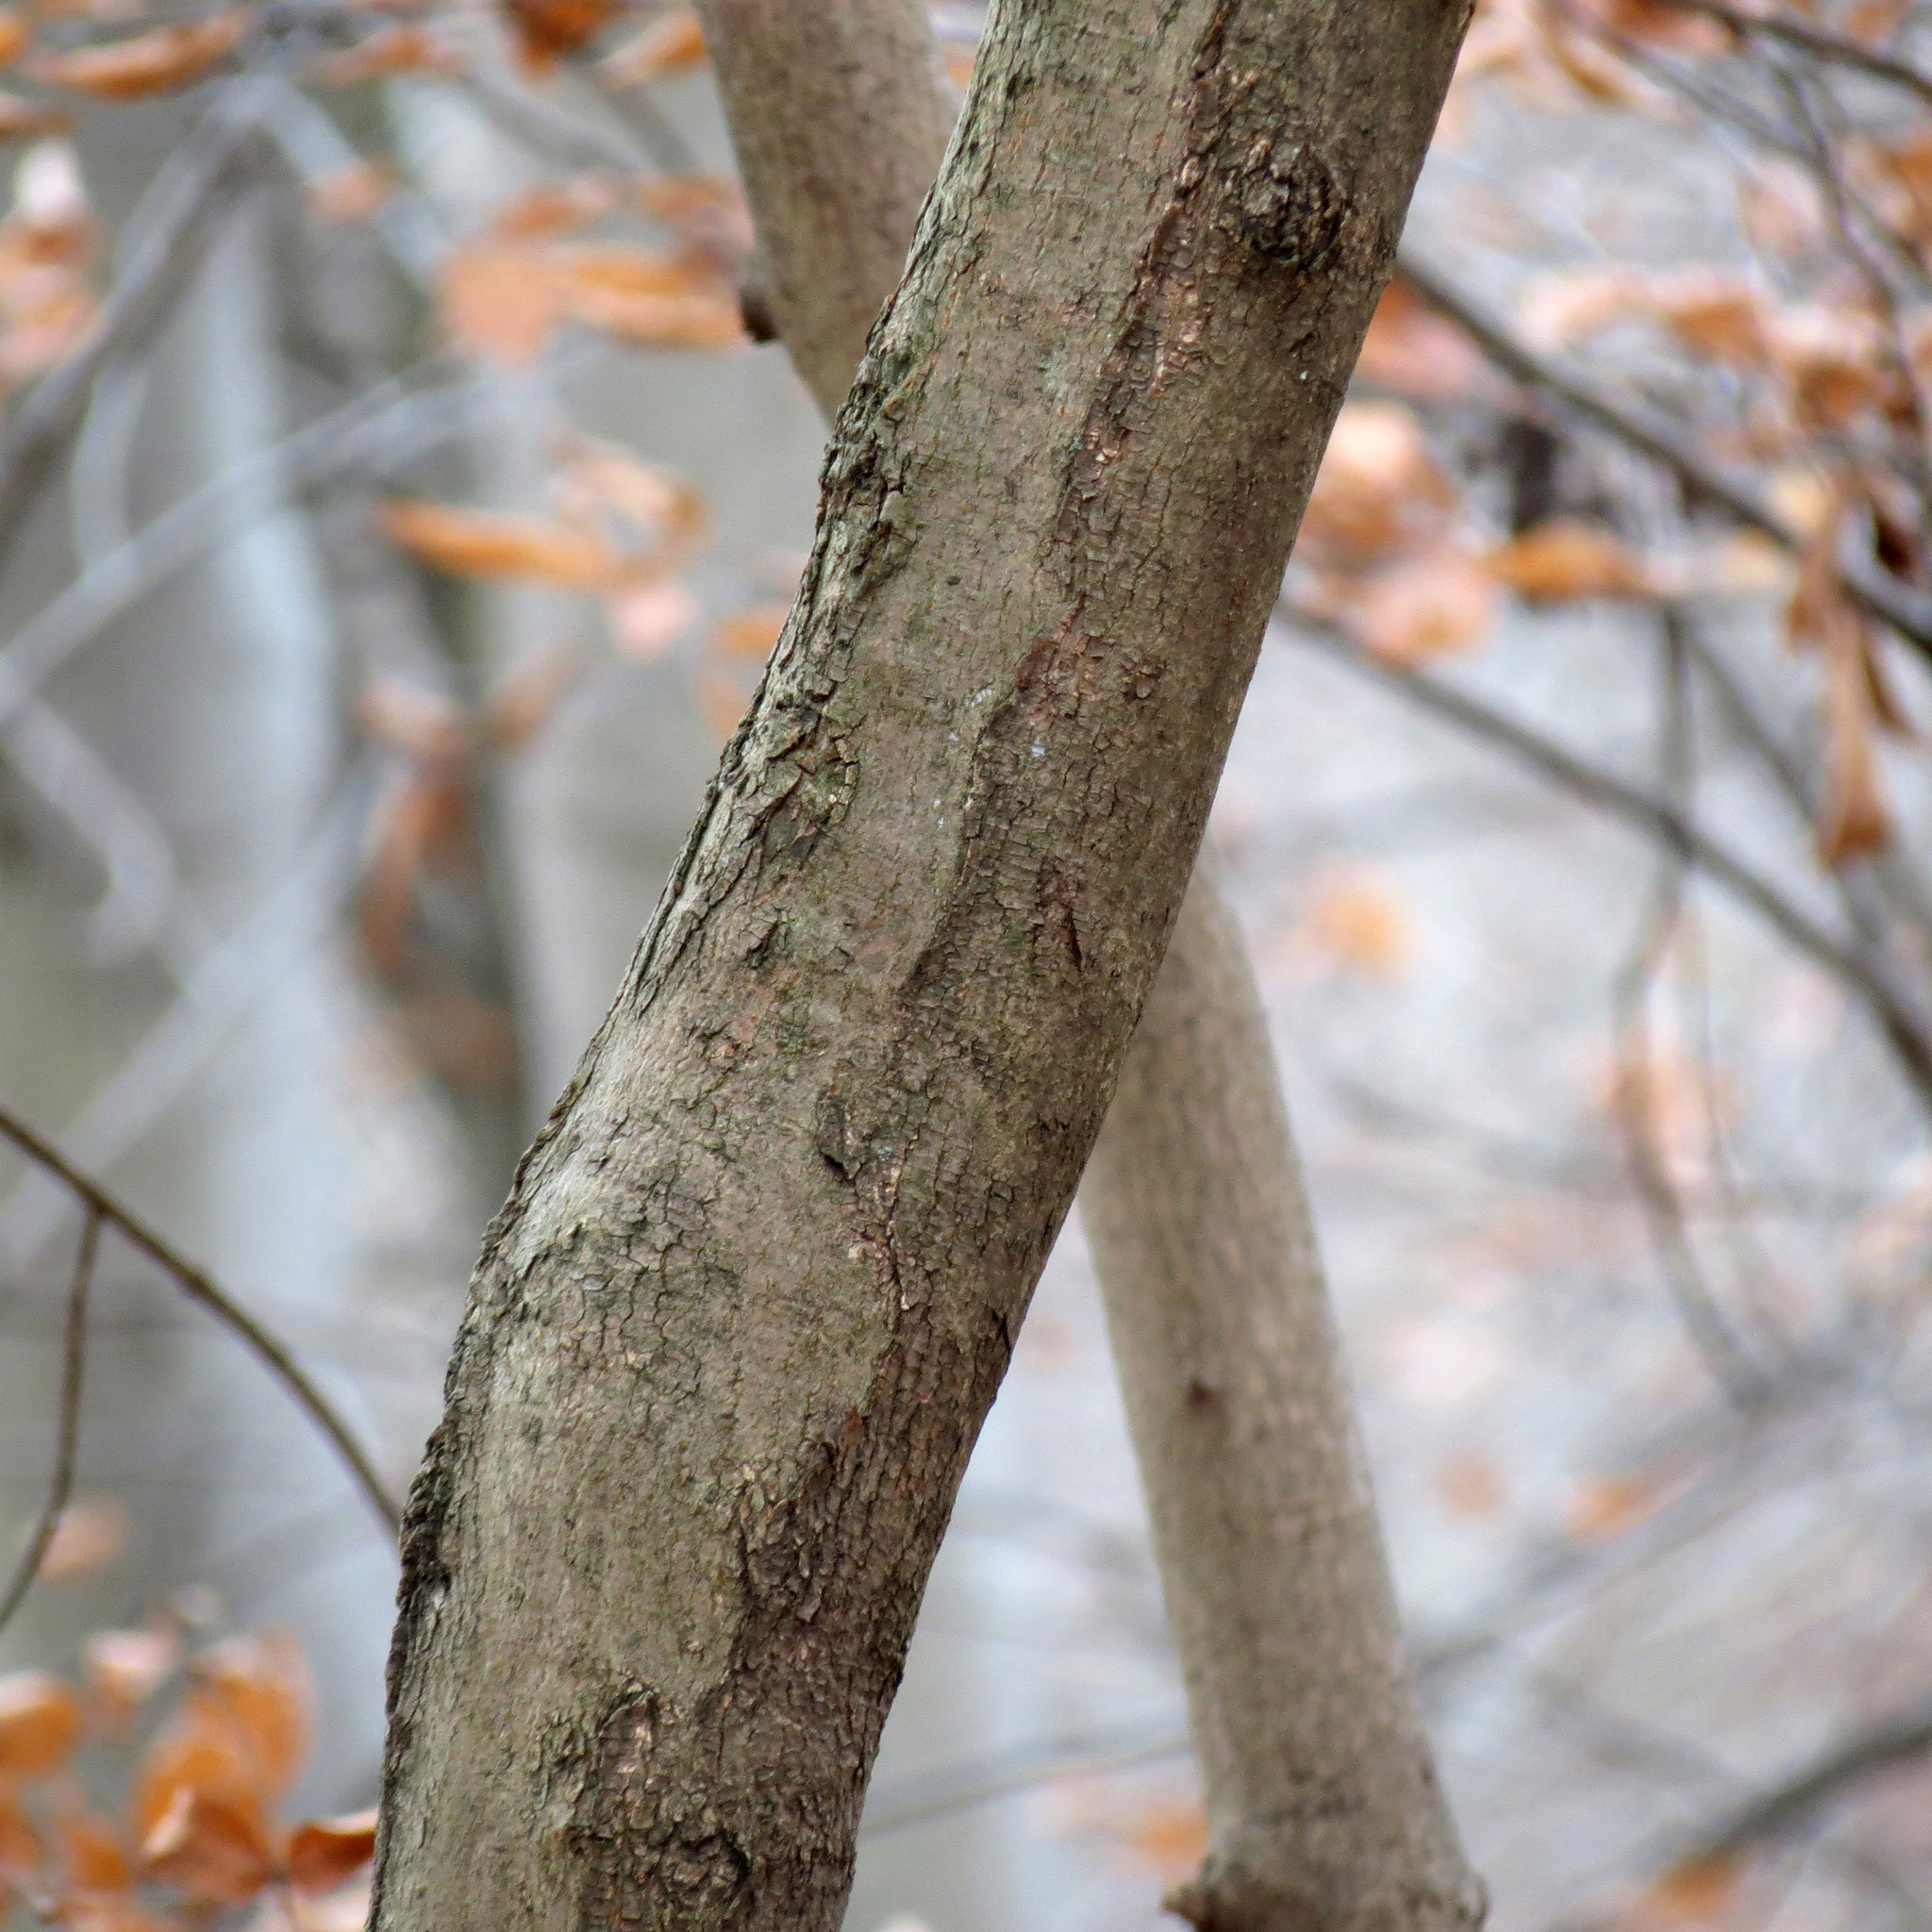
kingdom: Plantae
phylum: Tracheophyta
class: Magnoliopsida
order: Sapindales
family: Sapindaceae
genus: Acer
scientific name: Acer platanoides
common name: Norway maple
